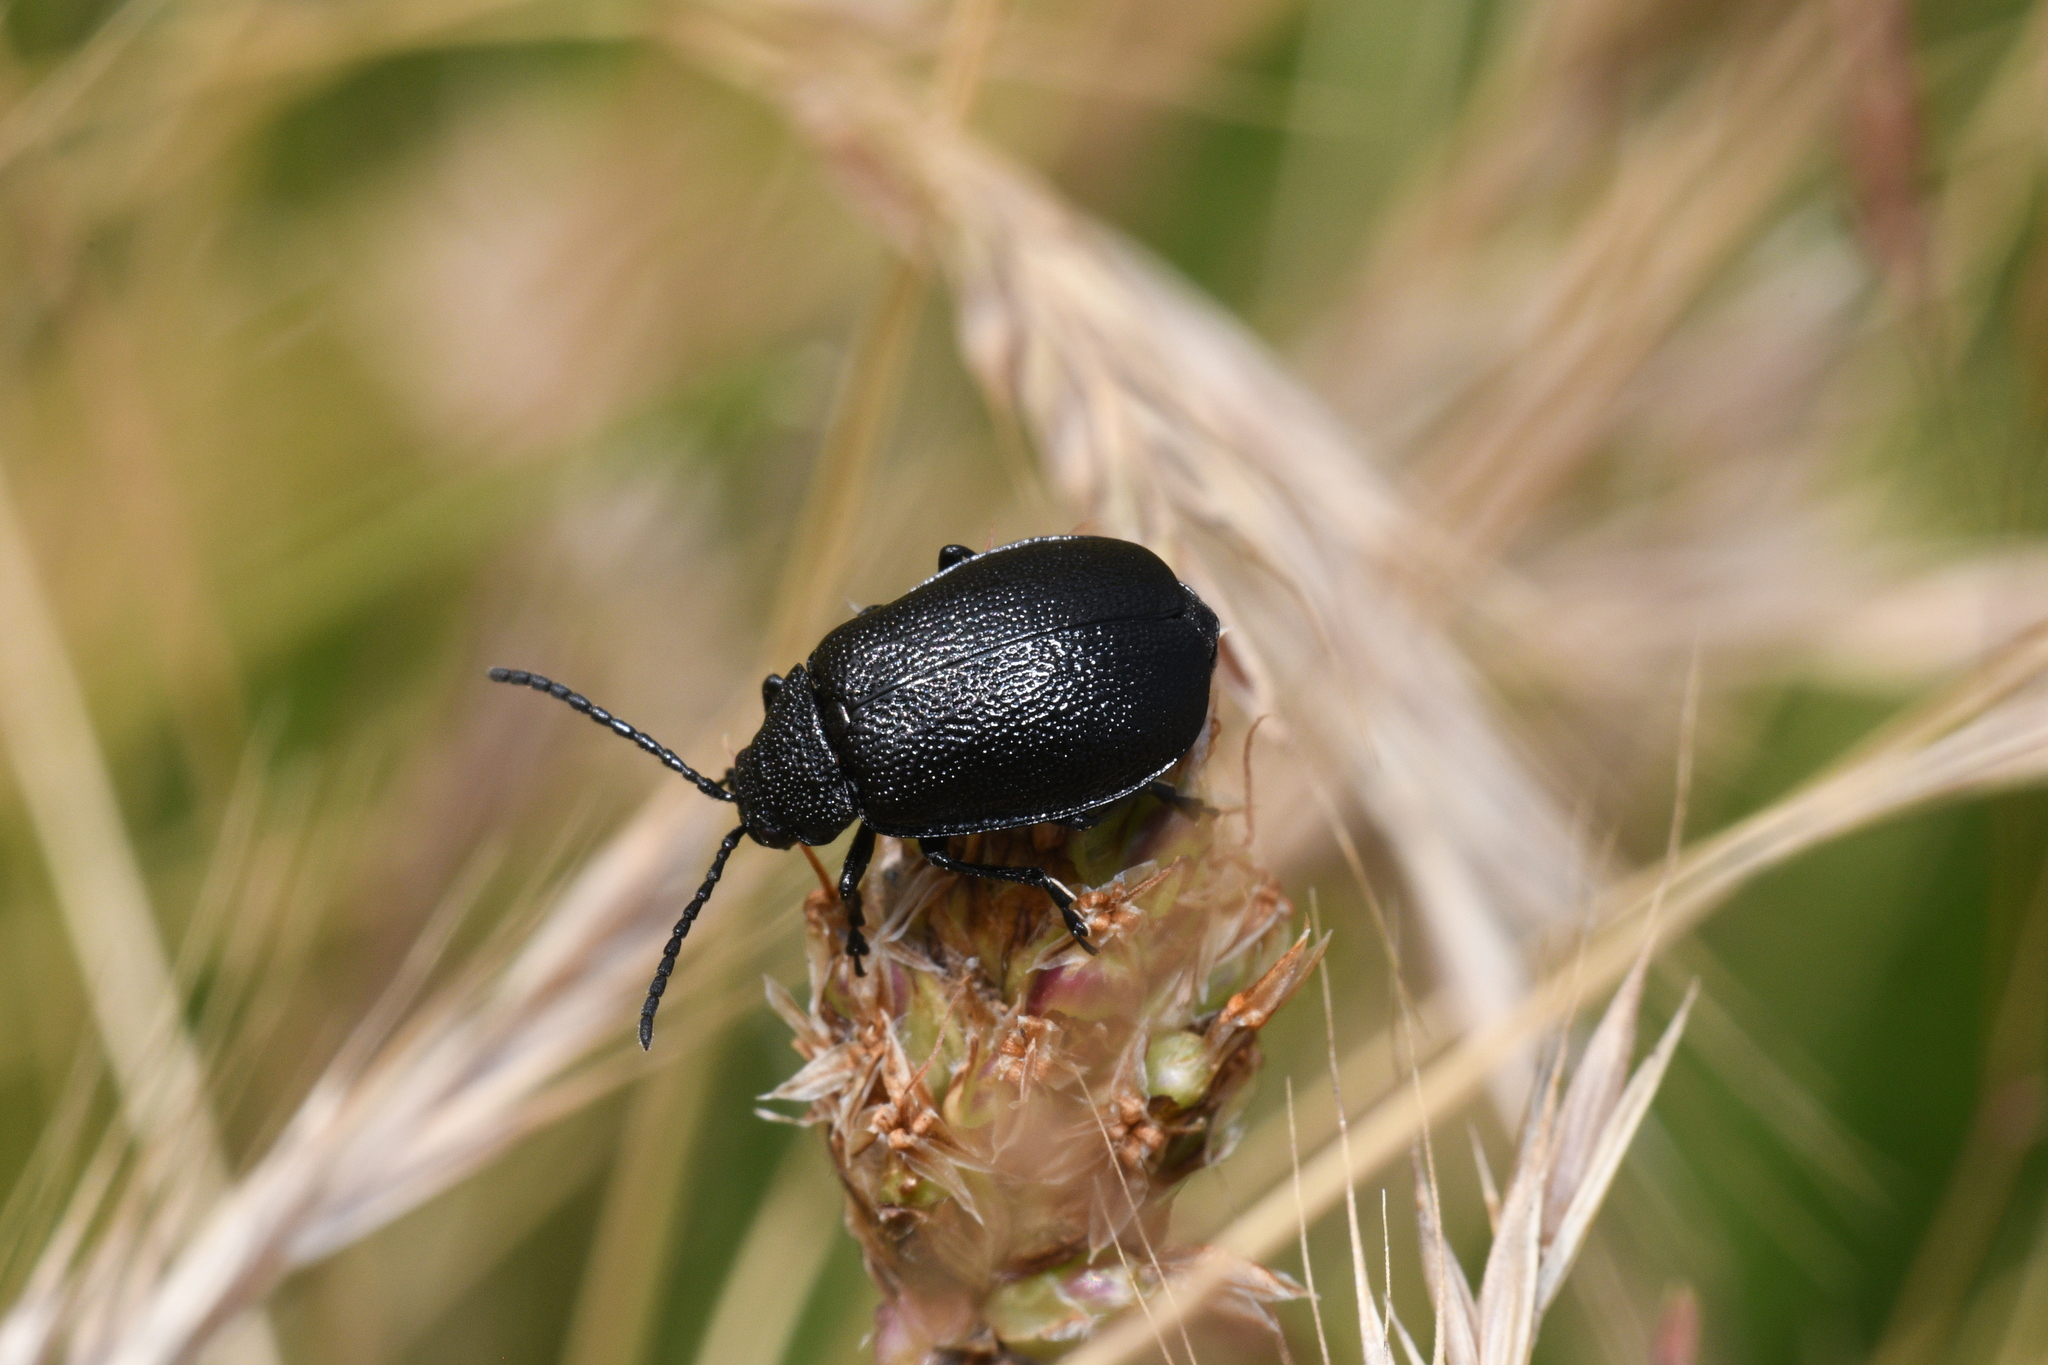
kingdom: Animalia
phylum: Arthropoda
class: Insecta
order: Coleoptera
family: Chrysomelidae
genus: Galeruca
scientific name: Galeruca tanaceti
